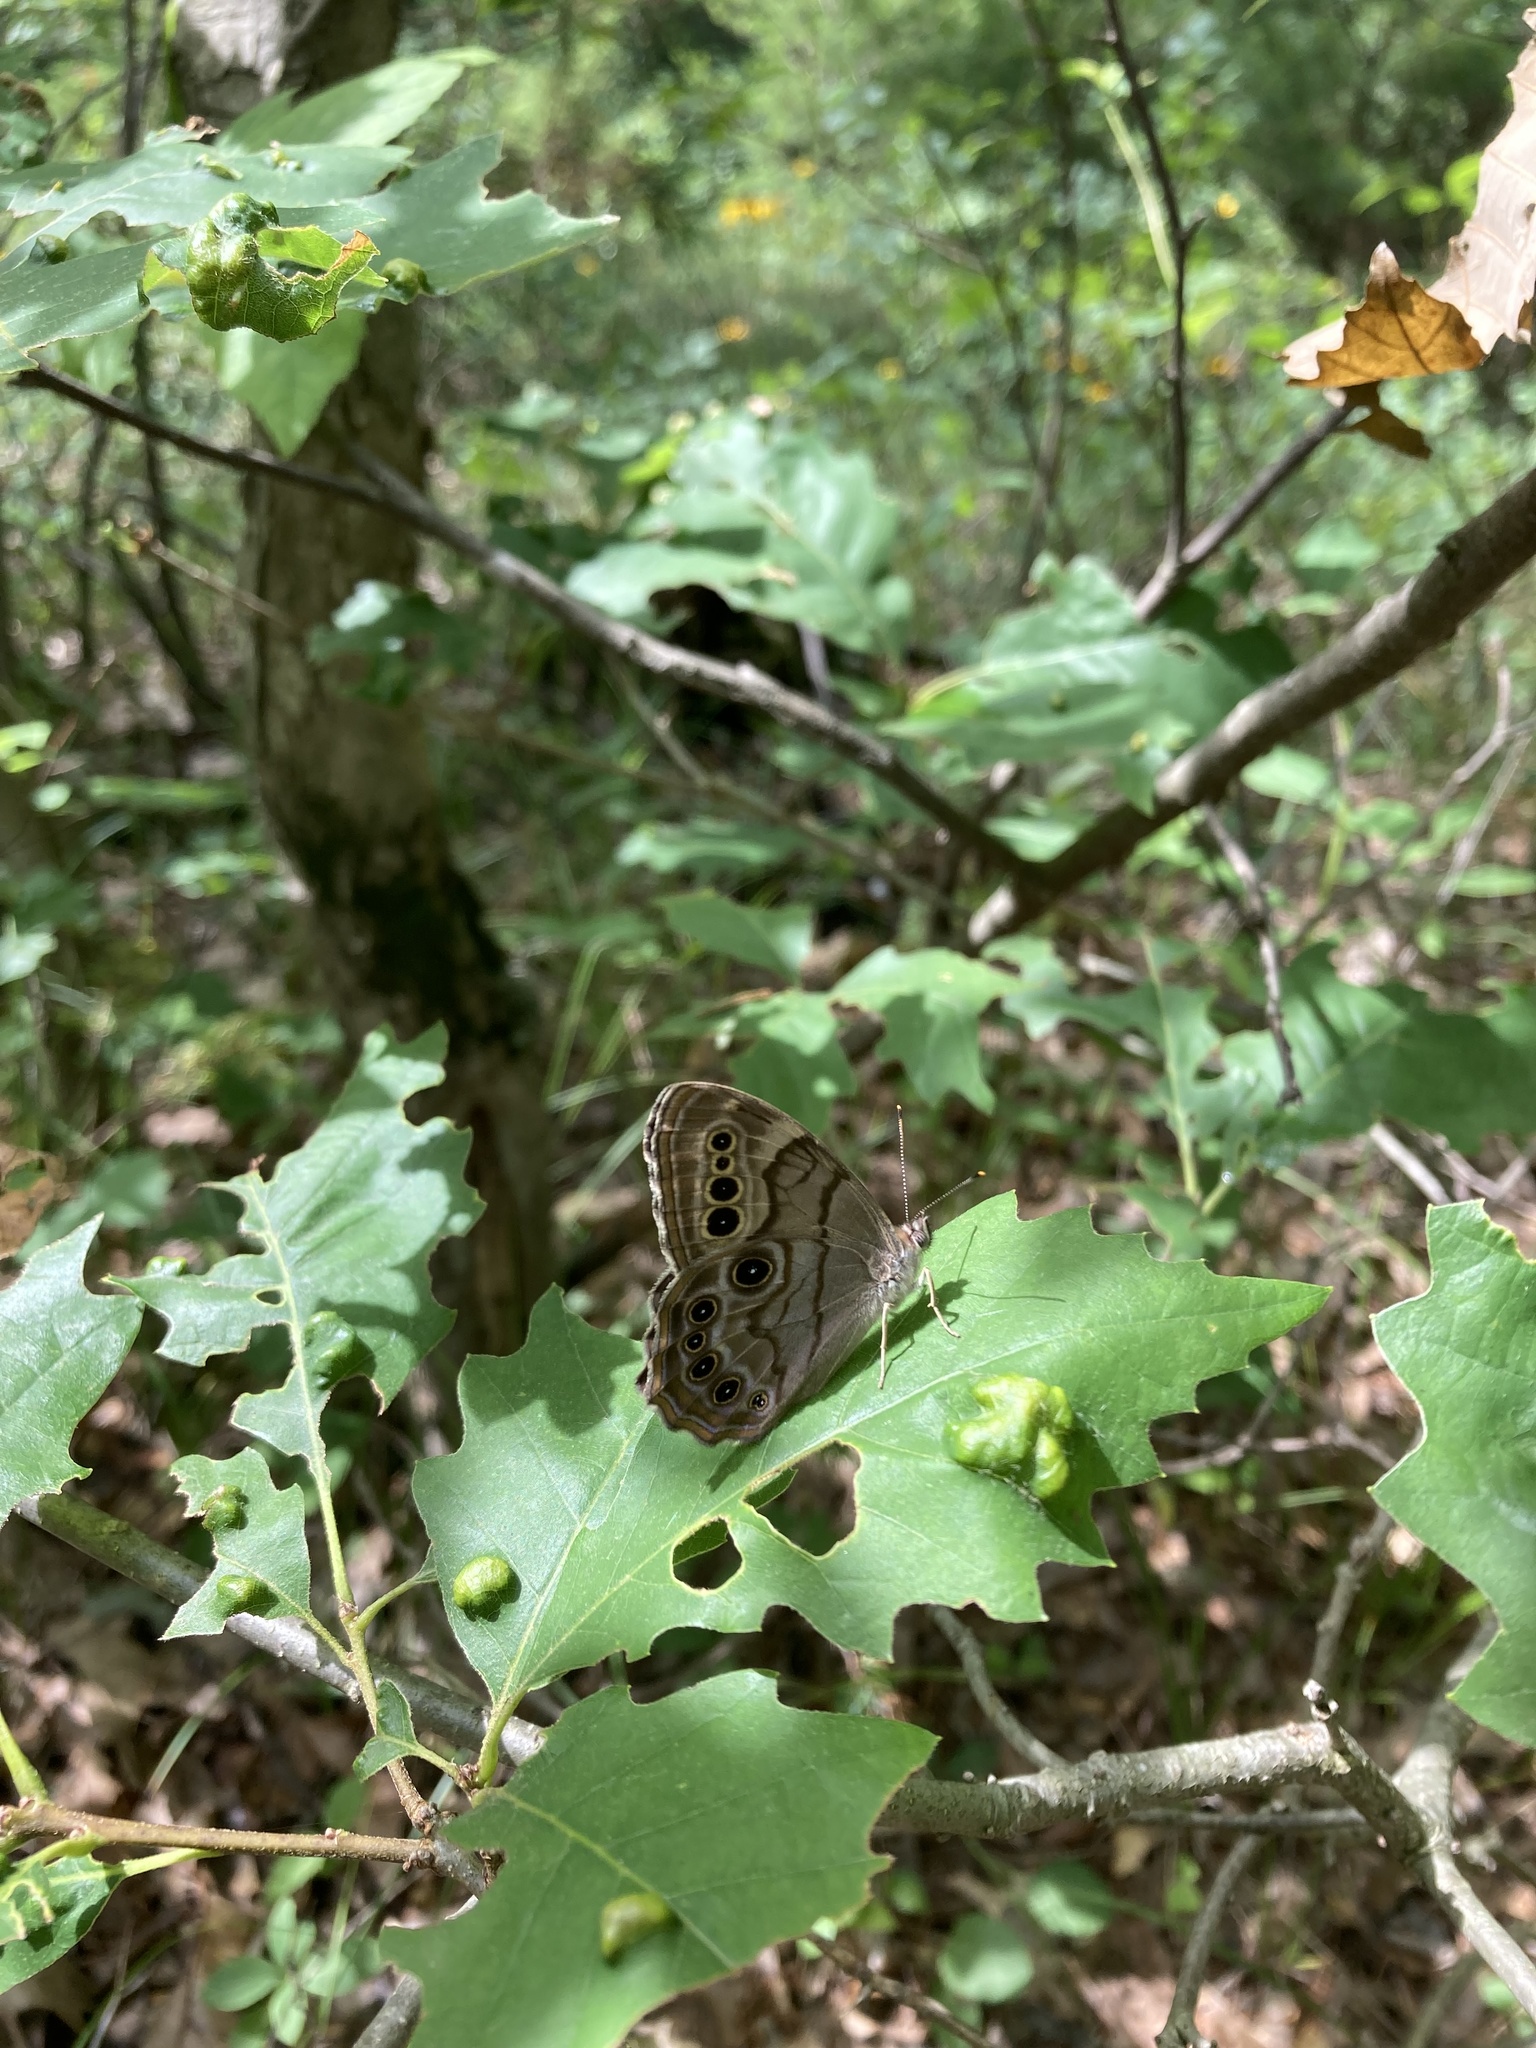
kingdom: Animalia
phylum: Arthropoda
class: Insecta
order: Lepidoptera
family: Nymphalidae
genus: Lethe
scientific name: Lethe anthedon
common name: Northern pearly-eye
